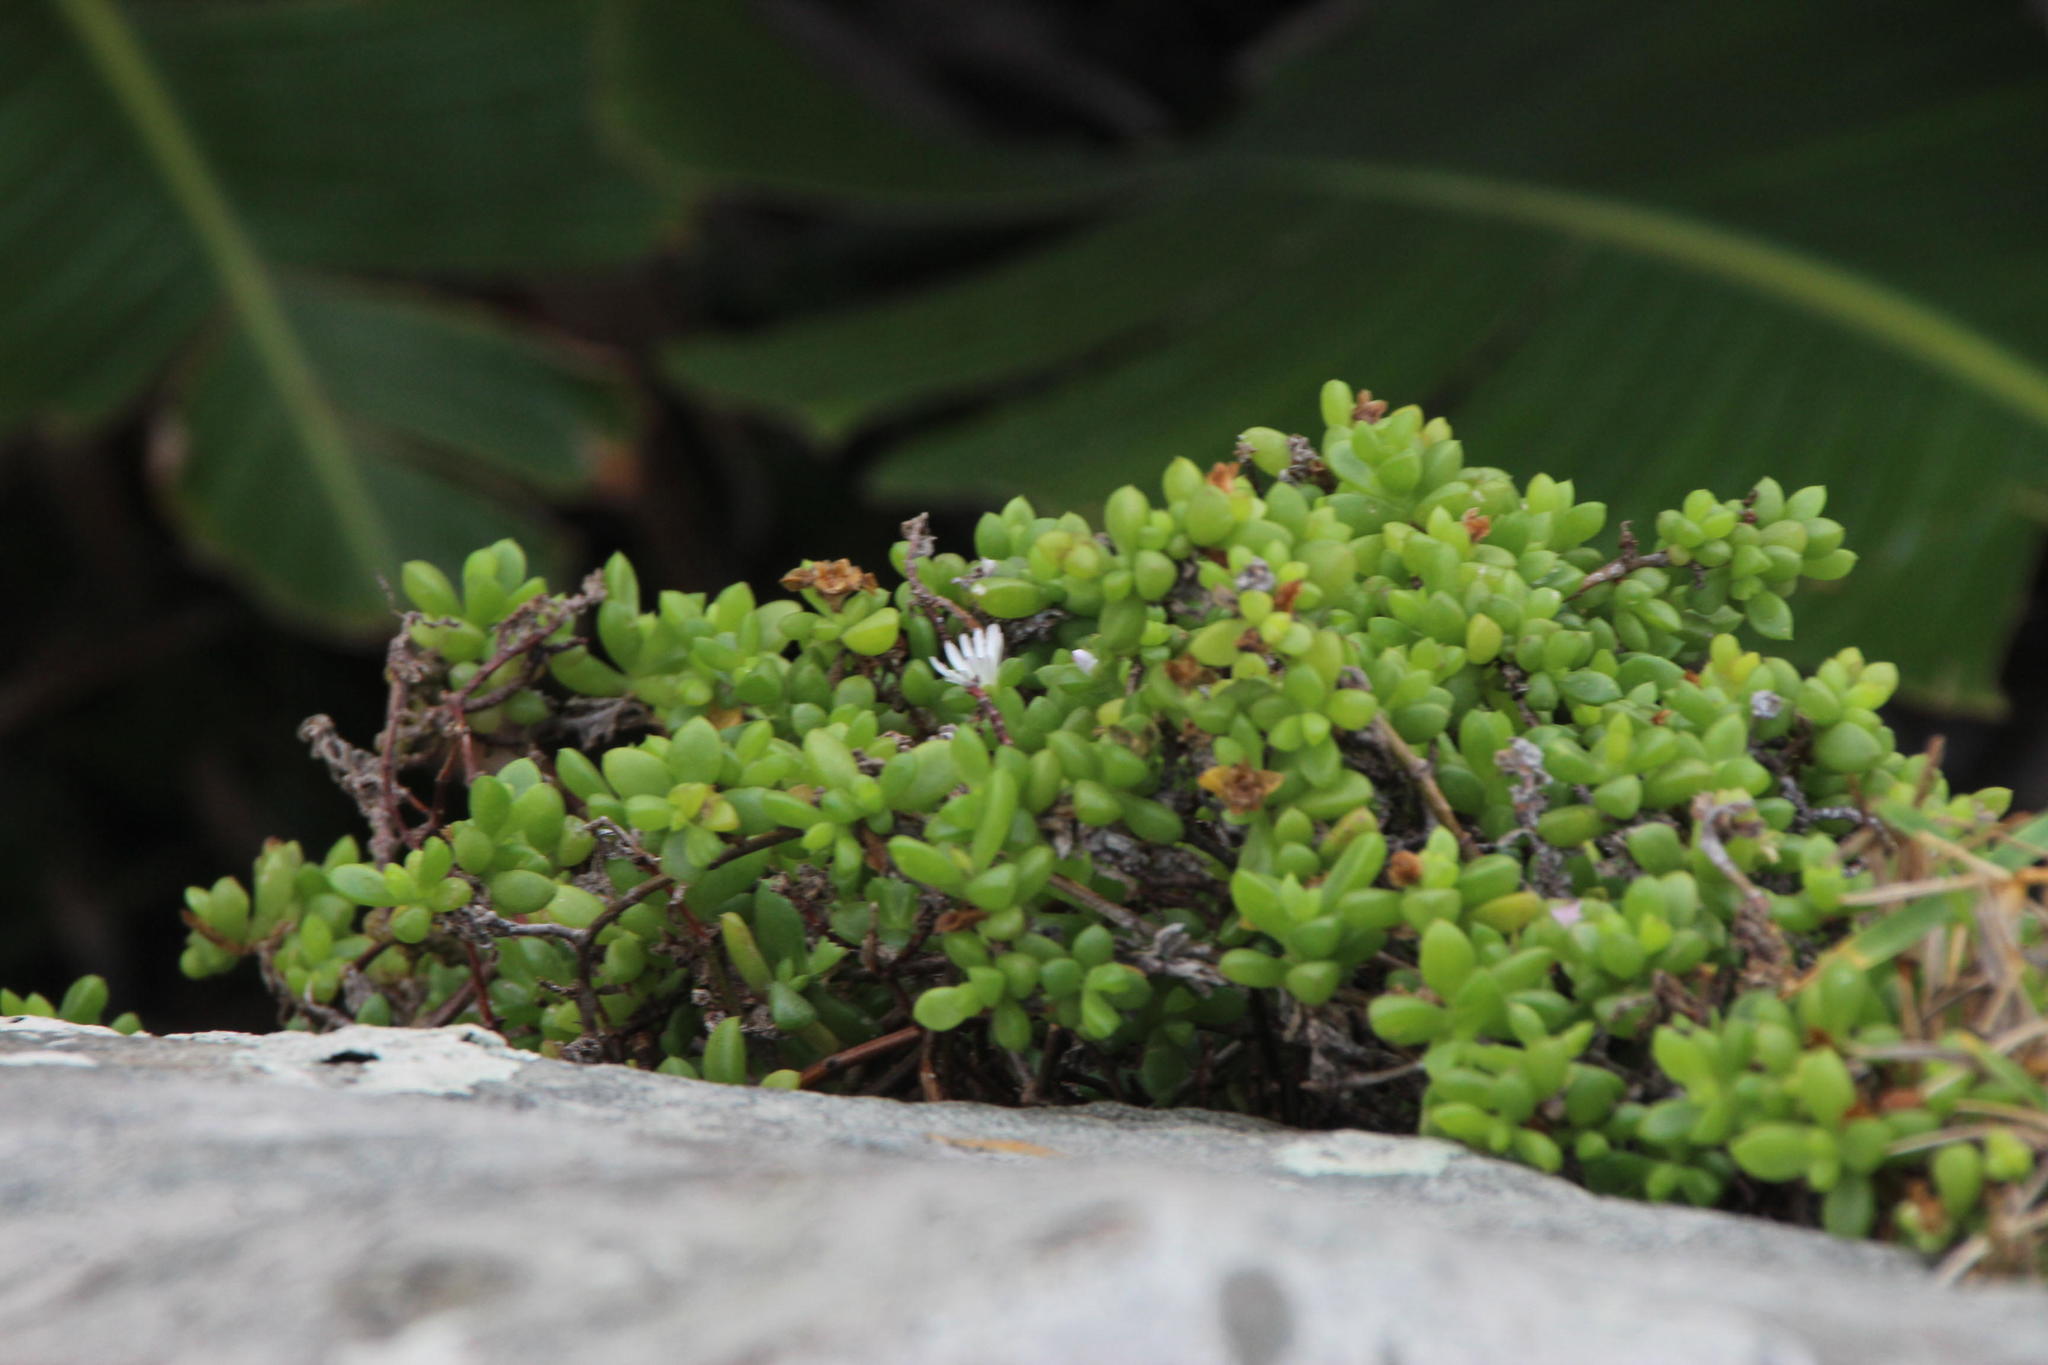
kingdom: Plantae
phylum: Tracheophyta
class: Magnoliopsida
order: Caryophyllales
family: Aizoaceae
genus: Delosperma
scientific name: Delosperma peglerae
